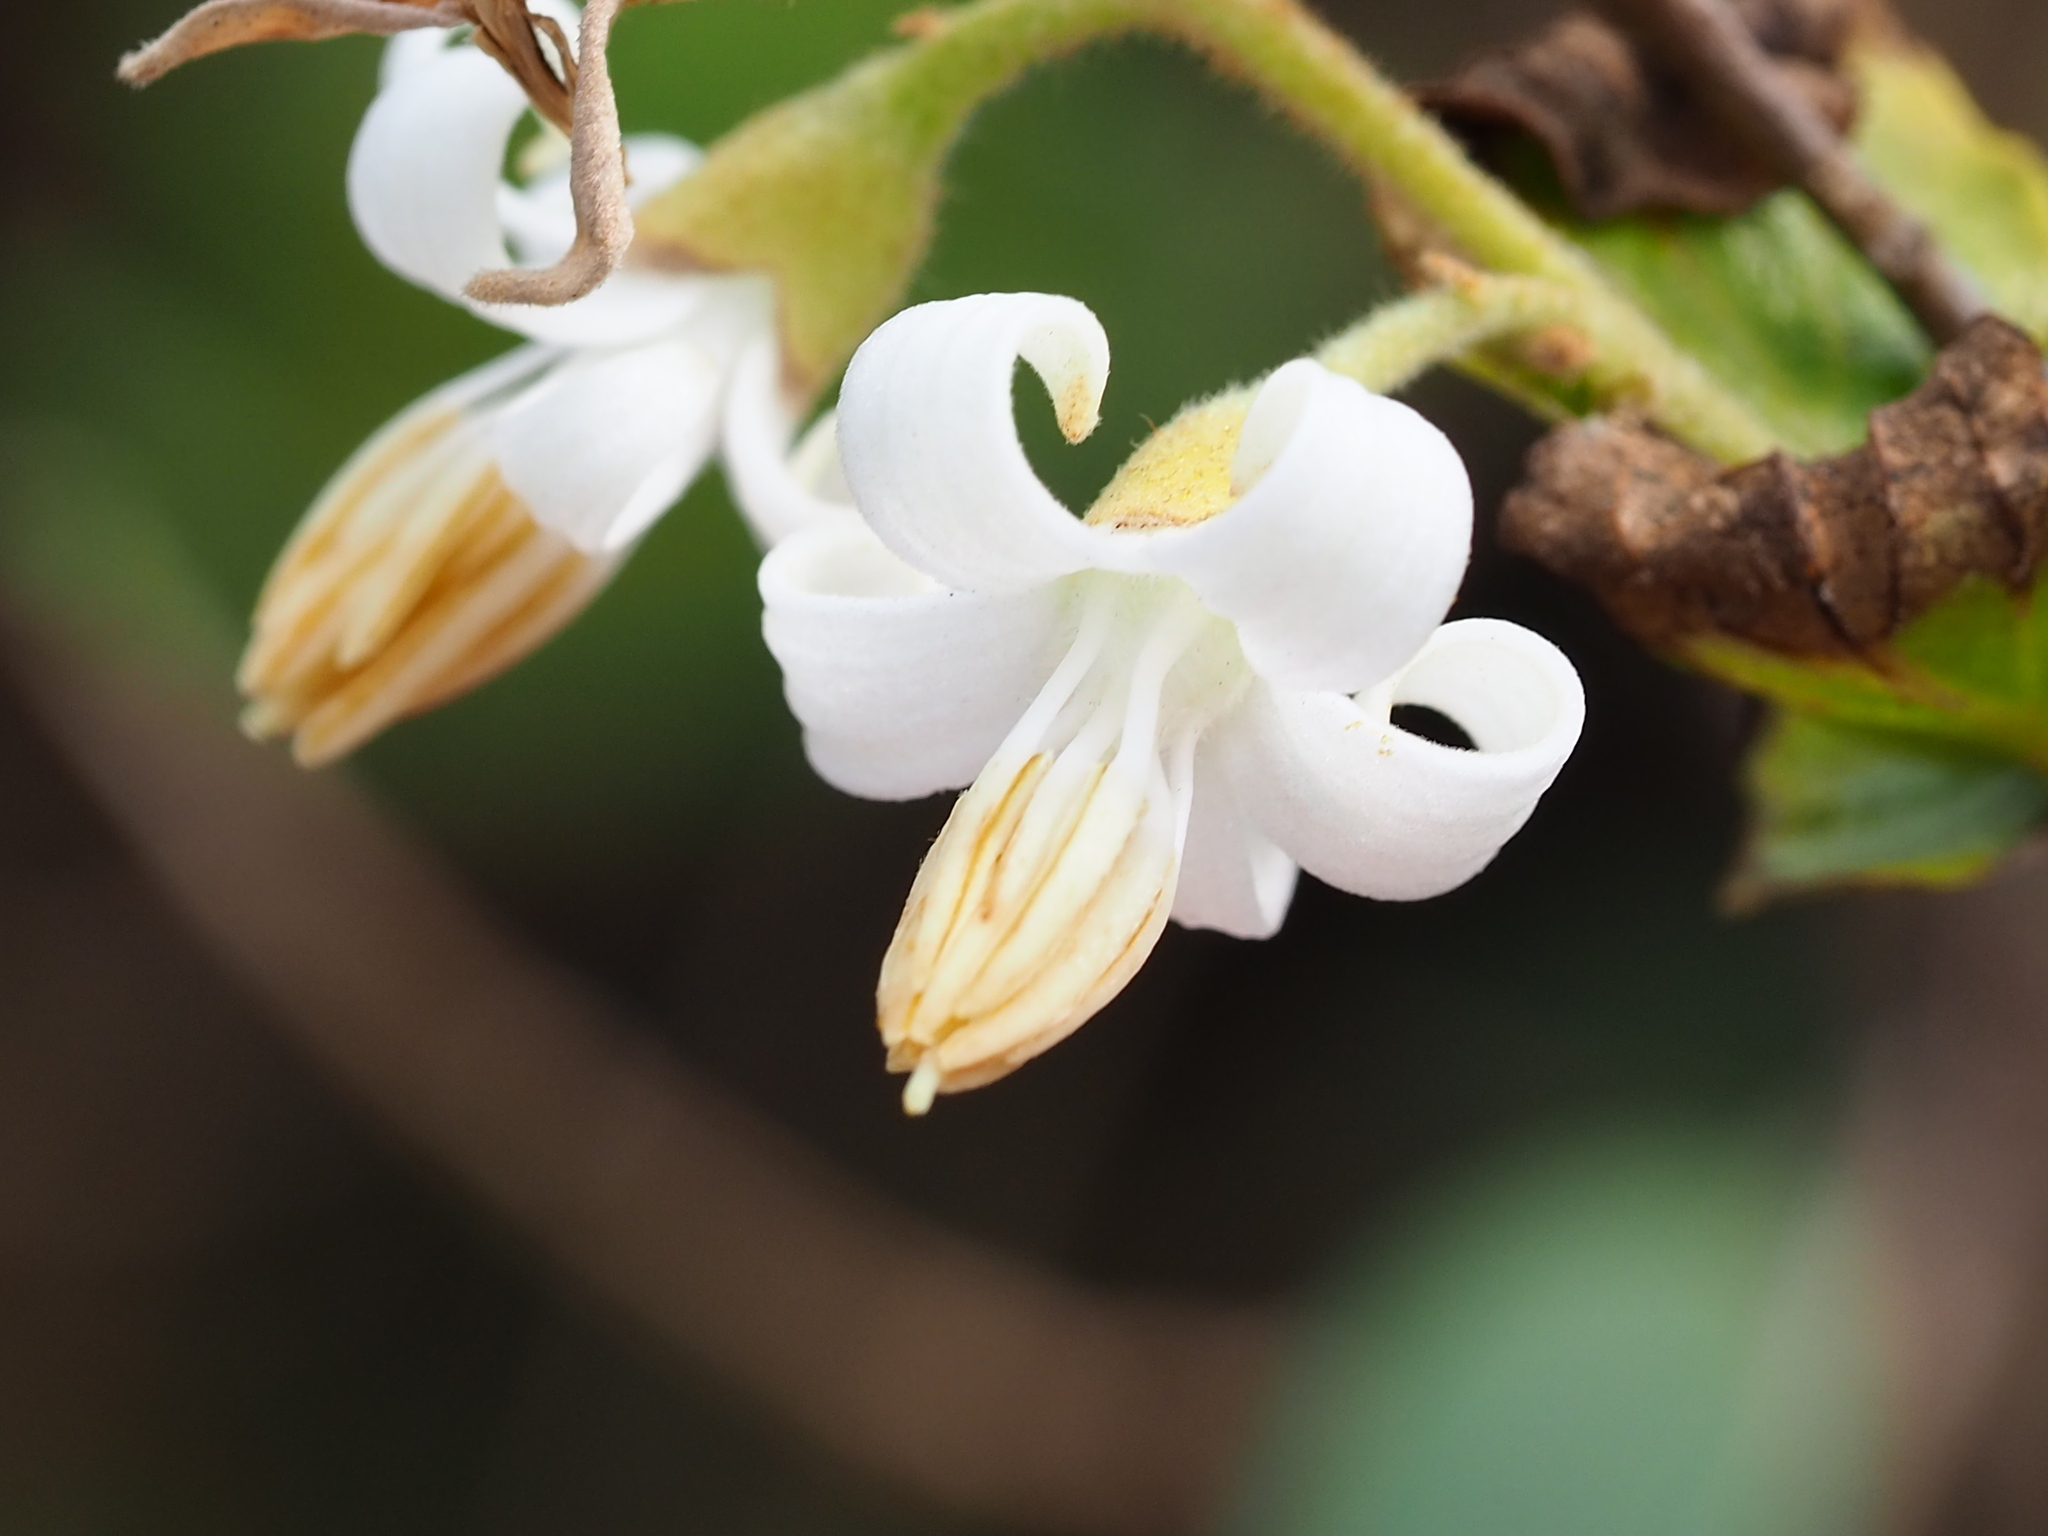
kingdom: Plantae
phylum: Tracheophyta
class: Magnoliopsida
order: Ericales
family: Styracaceae
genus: Styrax
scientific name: Styrax faberi
